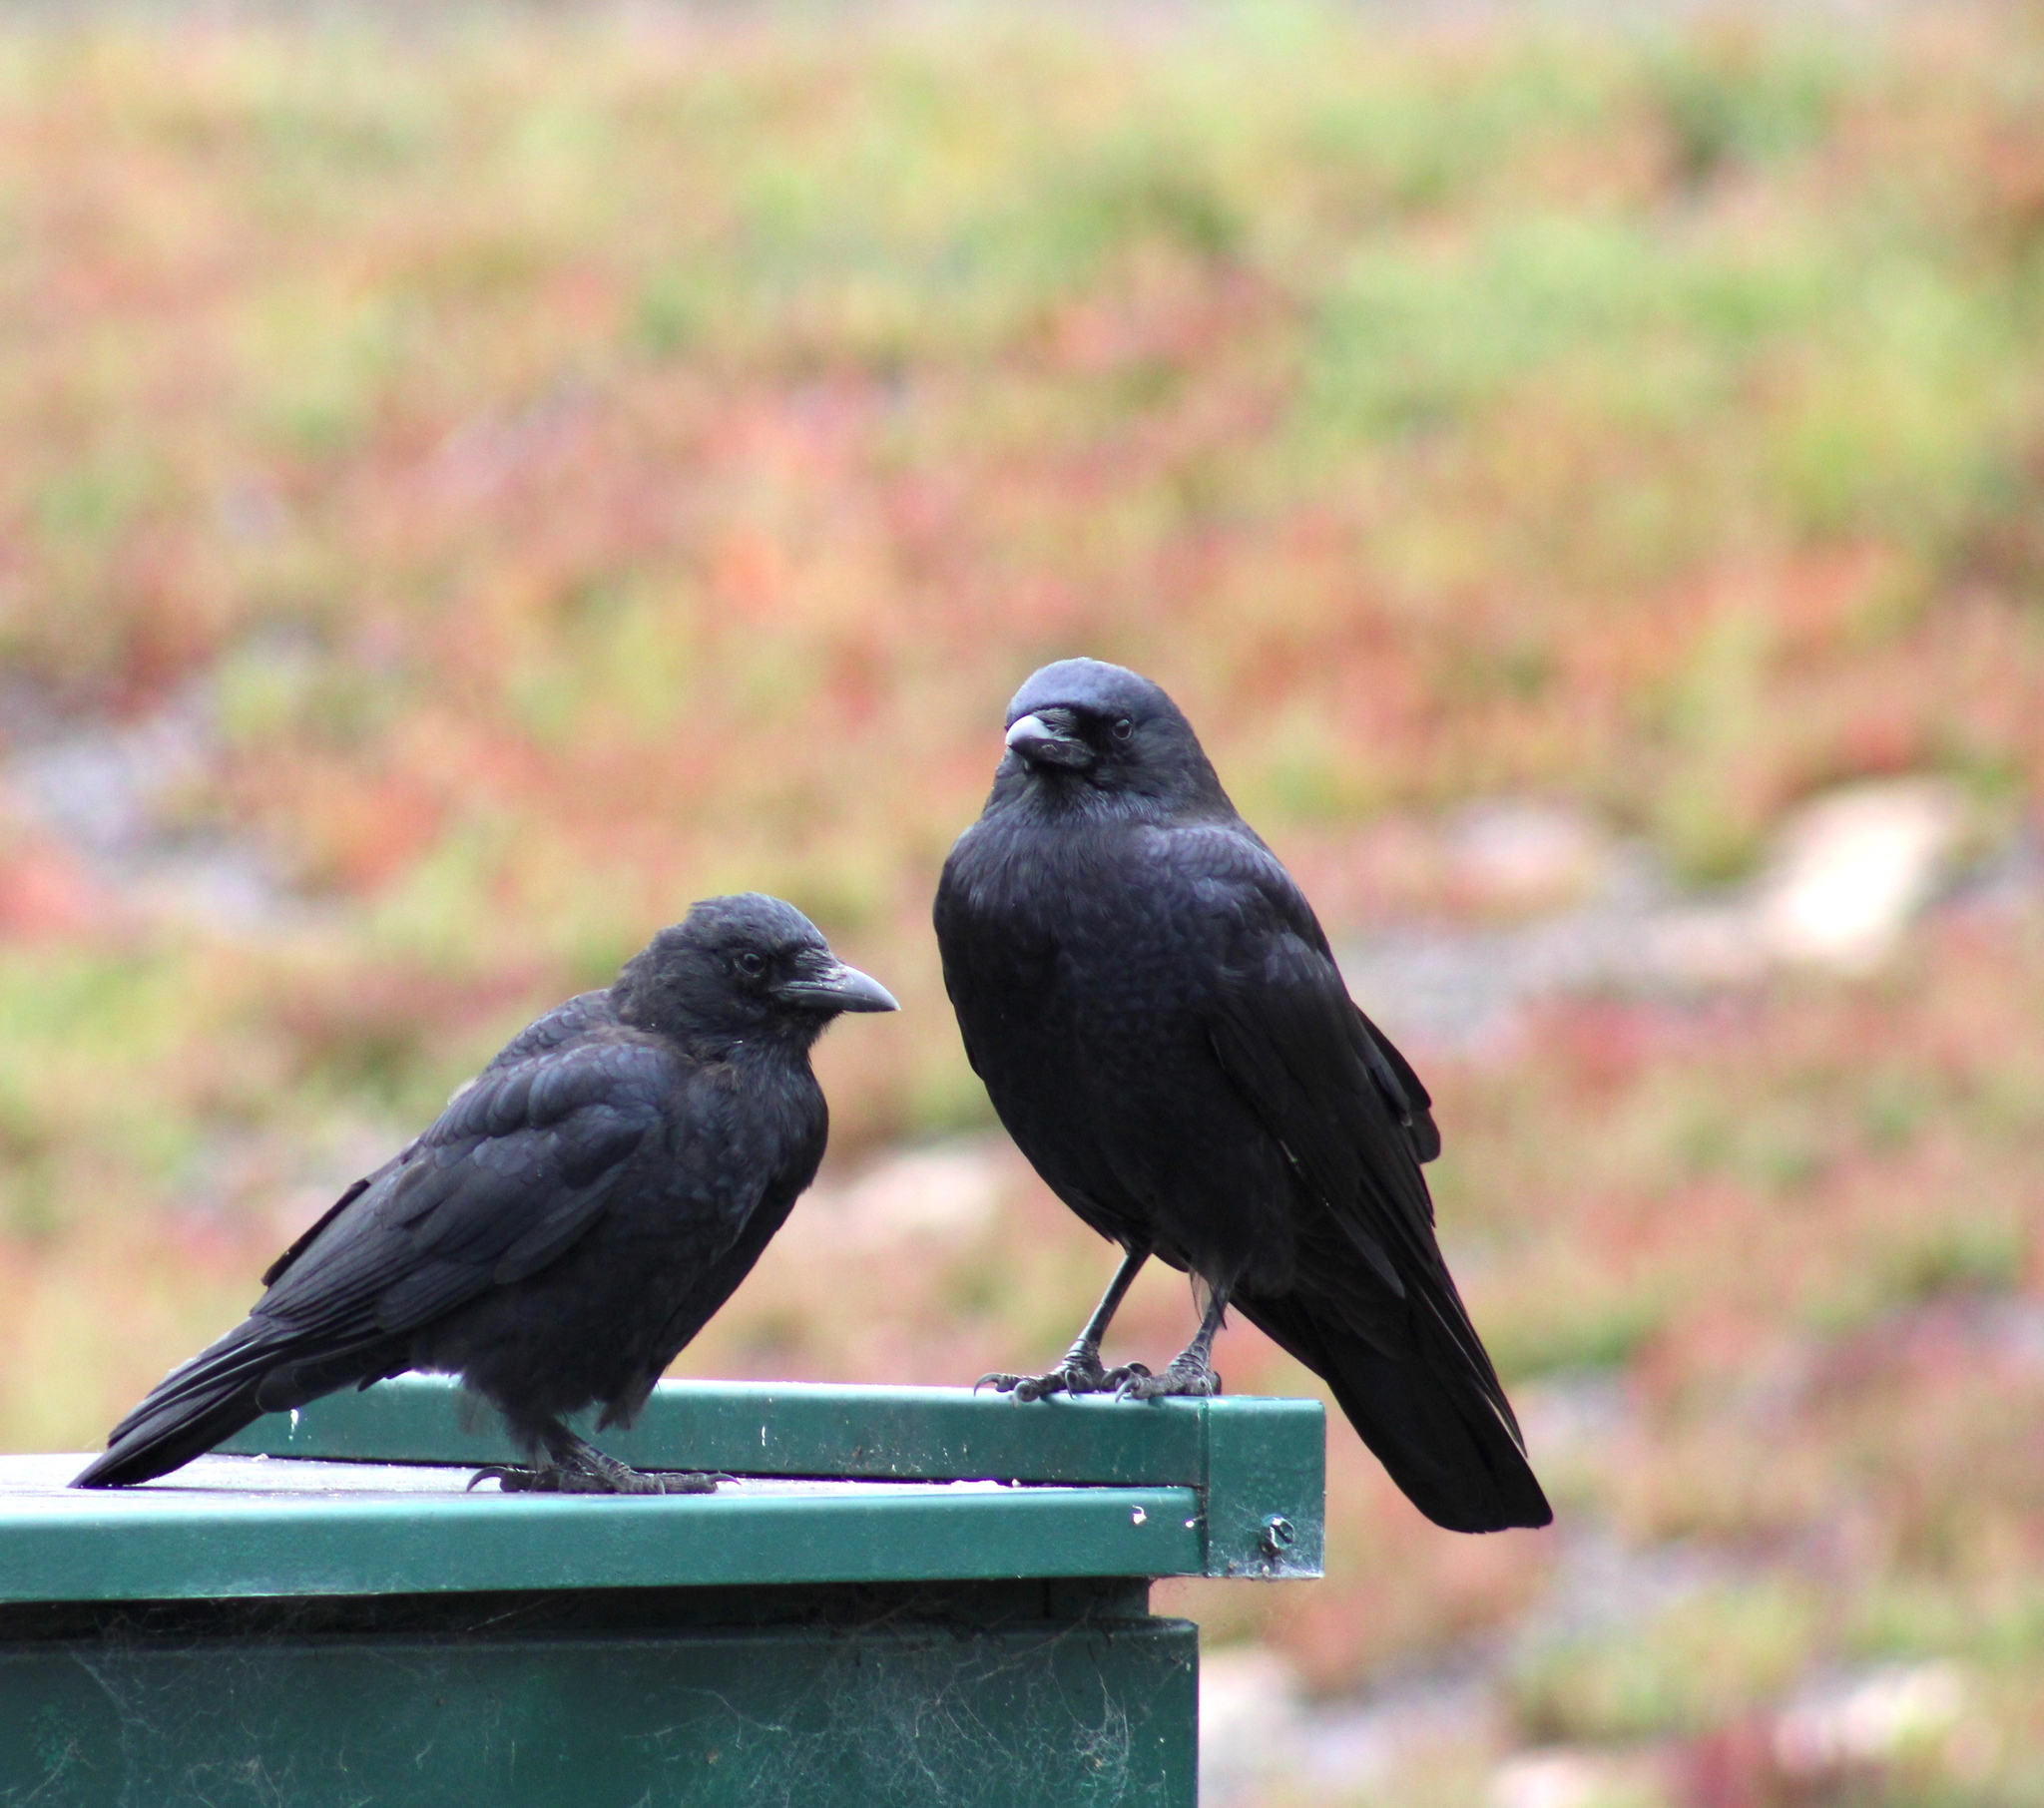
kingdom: Animalia
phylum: Chordata
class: Aves
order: Passeriformes
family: Corvidae
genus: Corvus
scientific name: Corvus brachyrhynchos
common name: American crow
